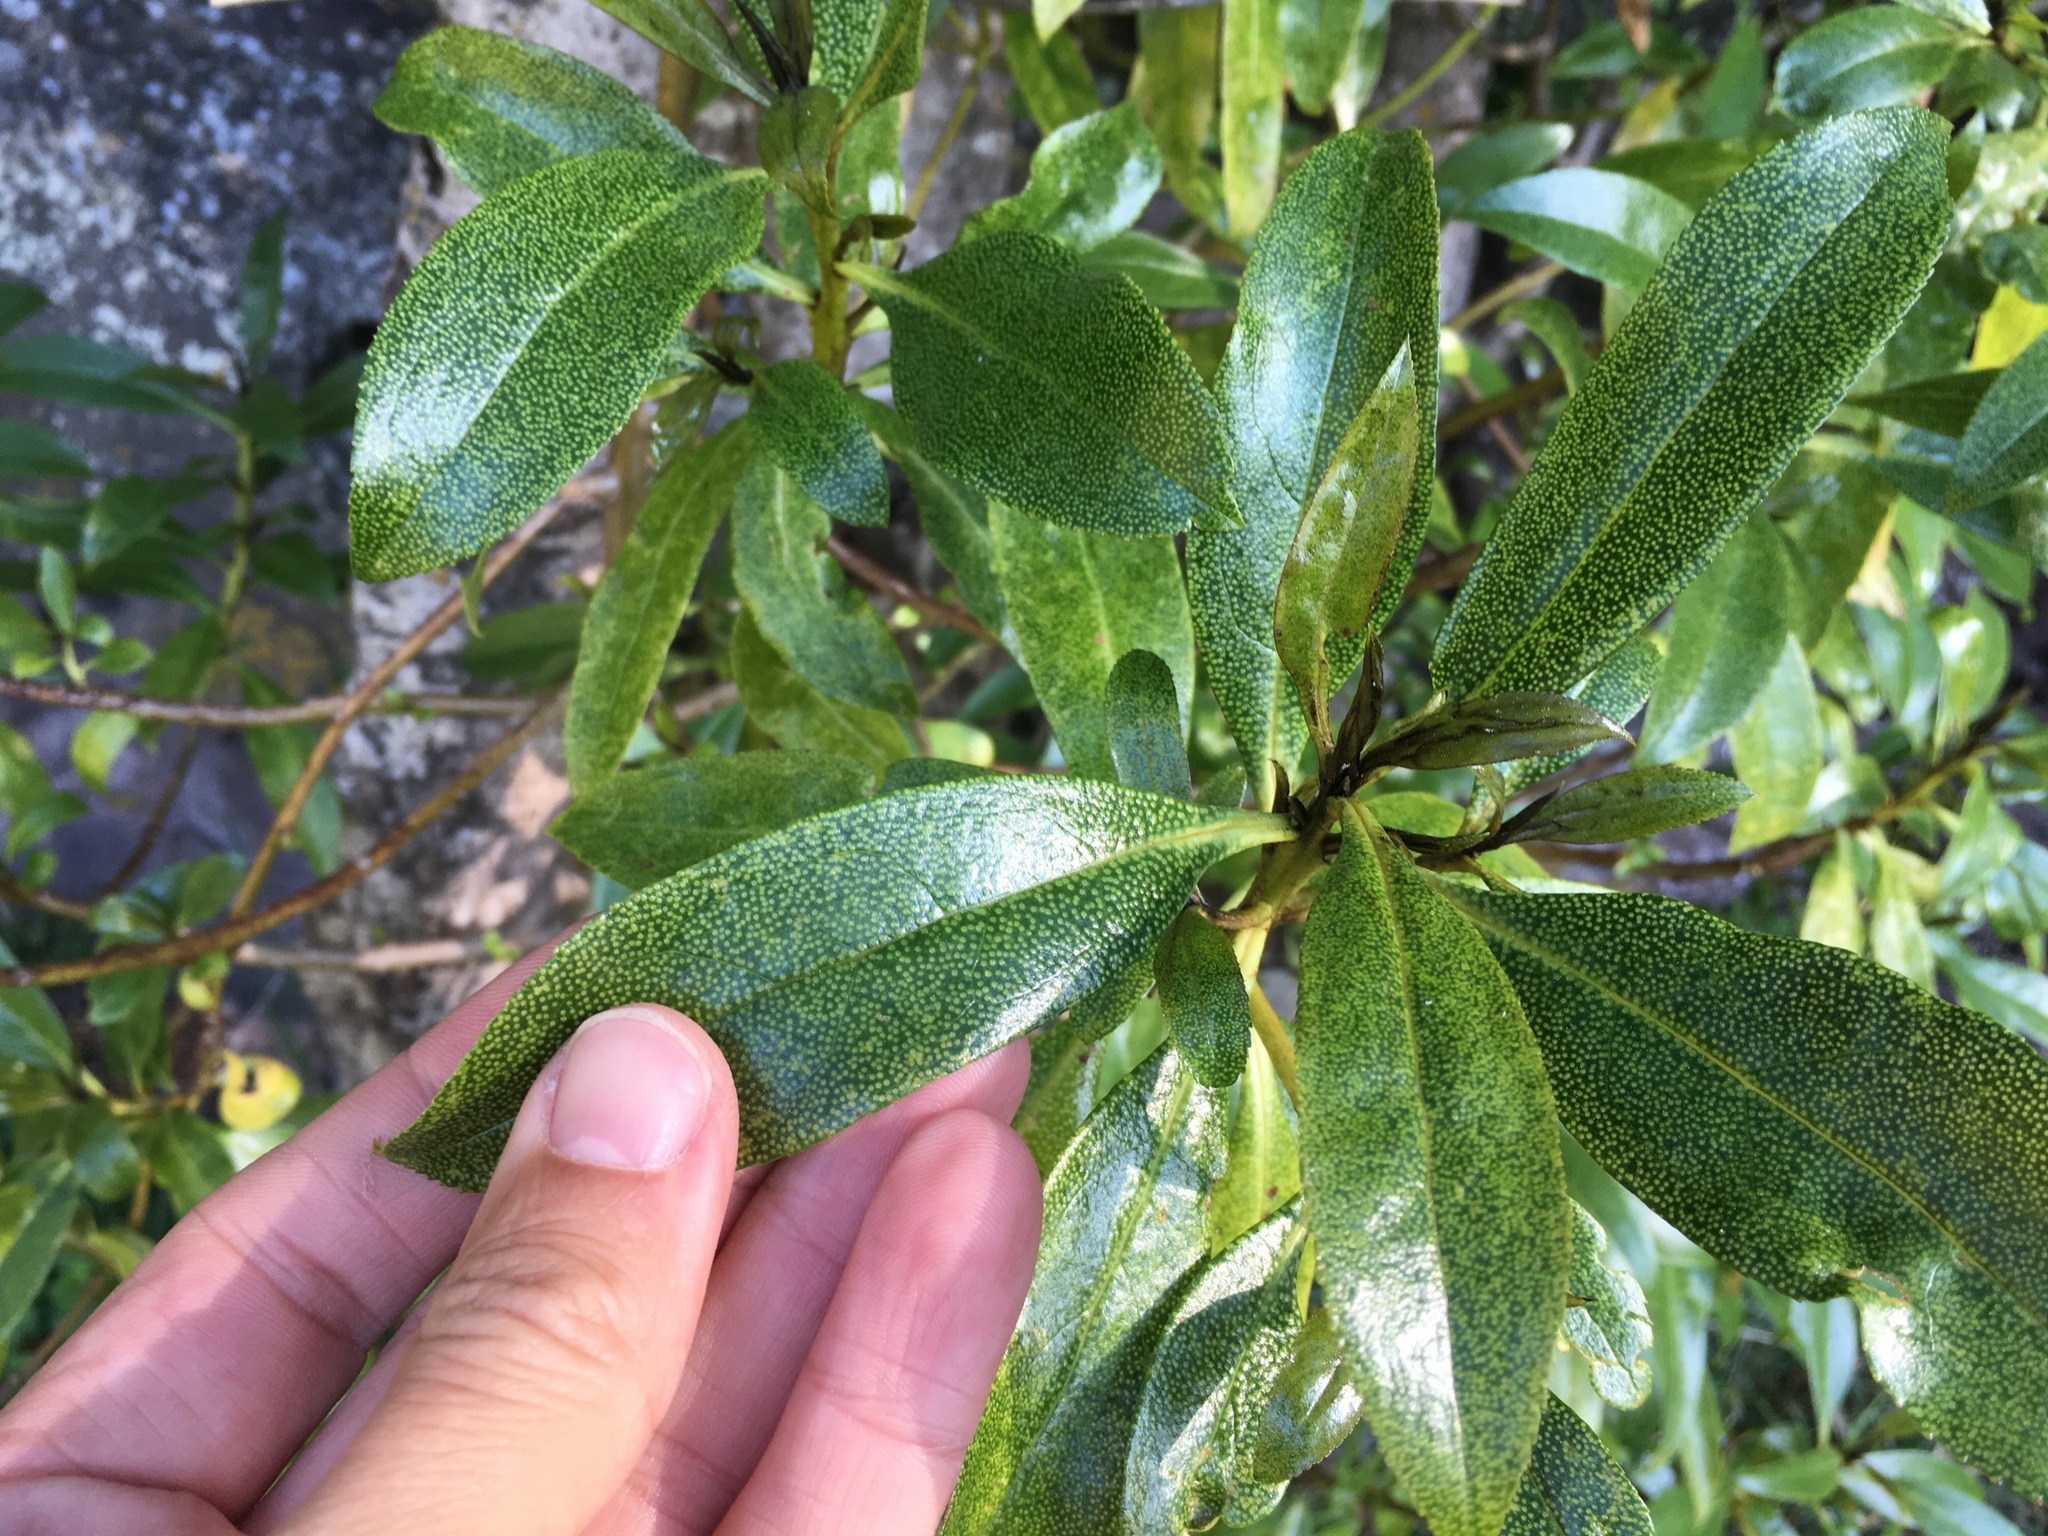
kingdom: Plantae
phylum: Tracheophyta
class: Magnoliopsida
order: Lamiales
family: Scrophulariaceae
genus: Myoporum
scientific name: Myoporum laetum
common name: Ngaio tree
